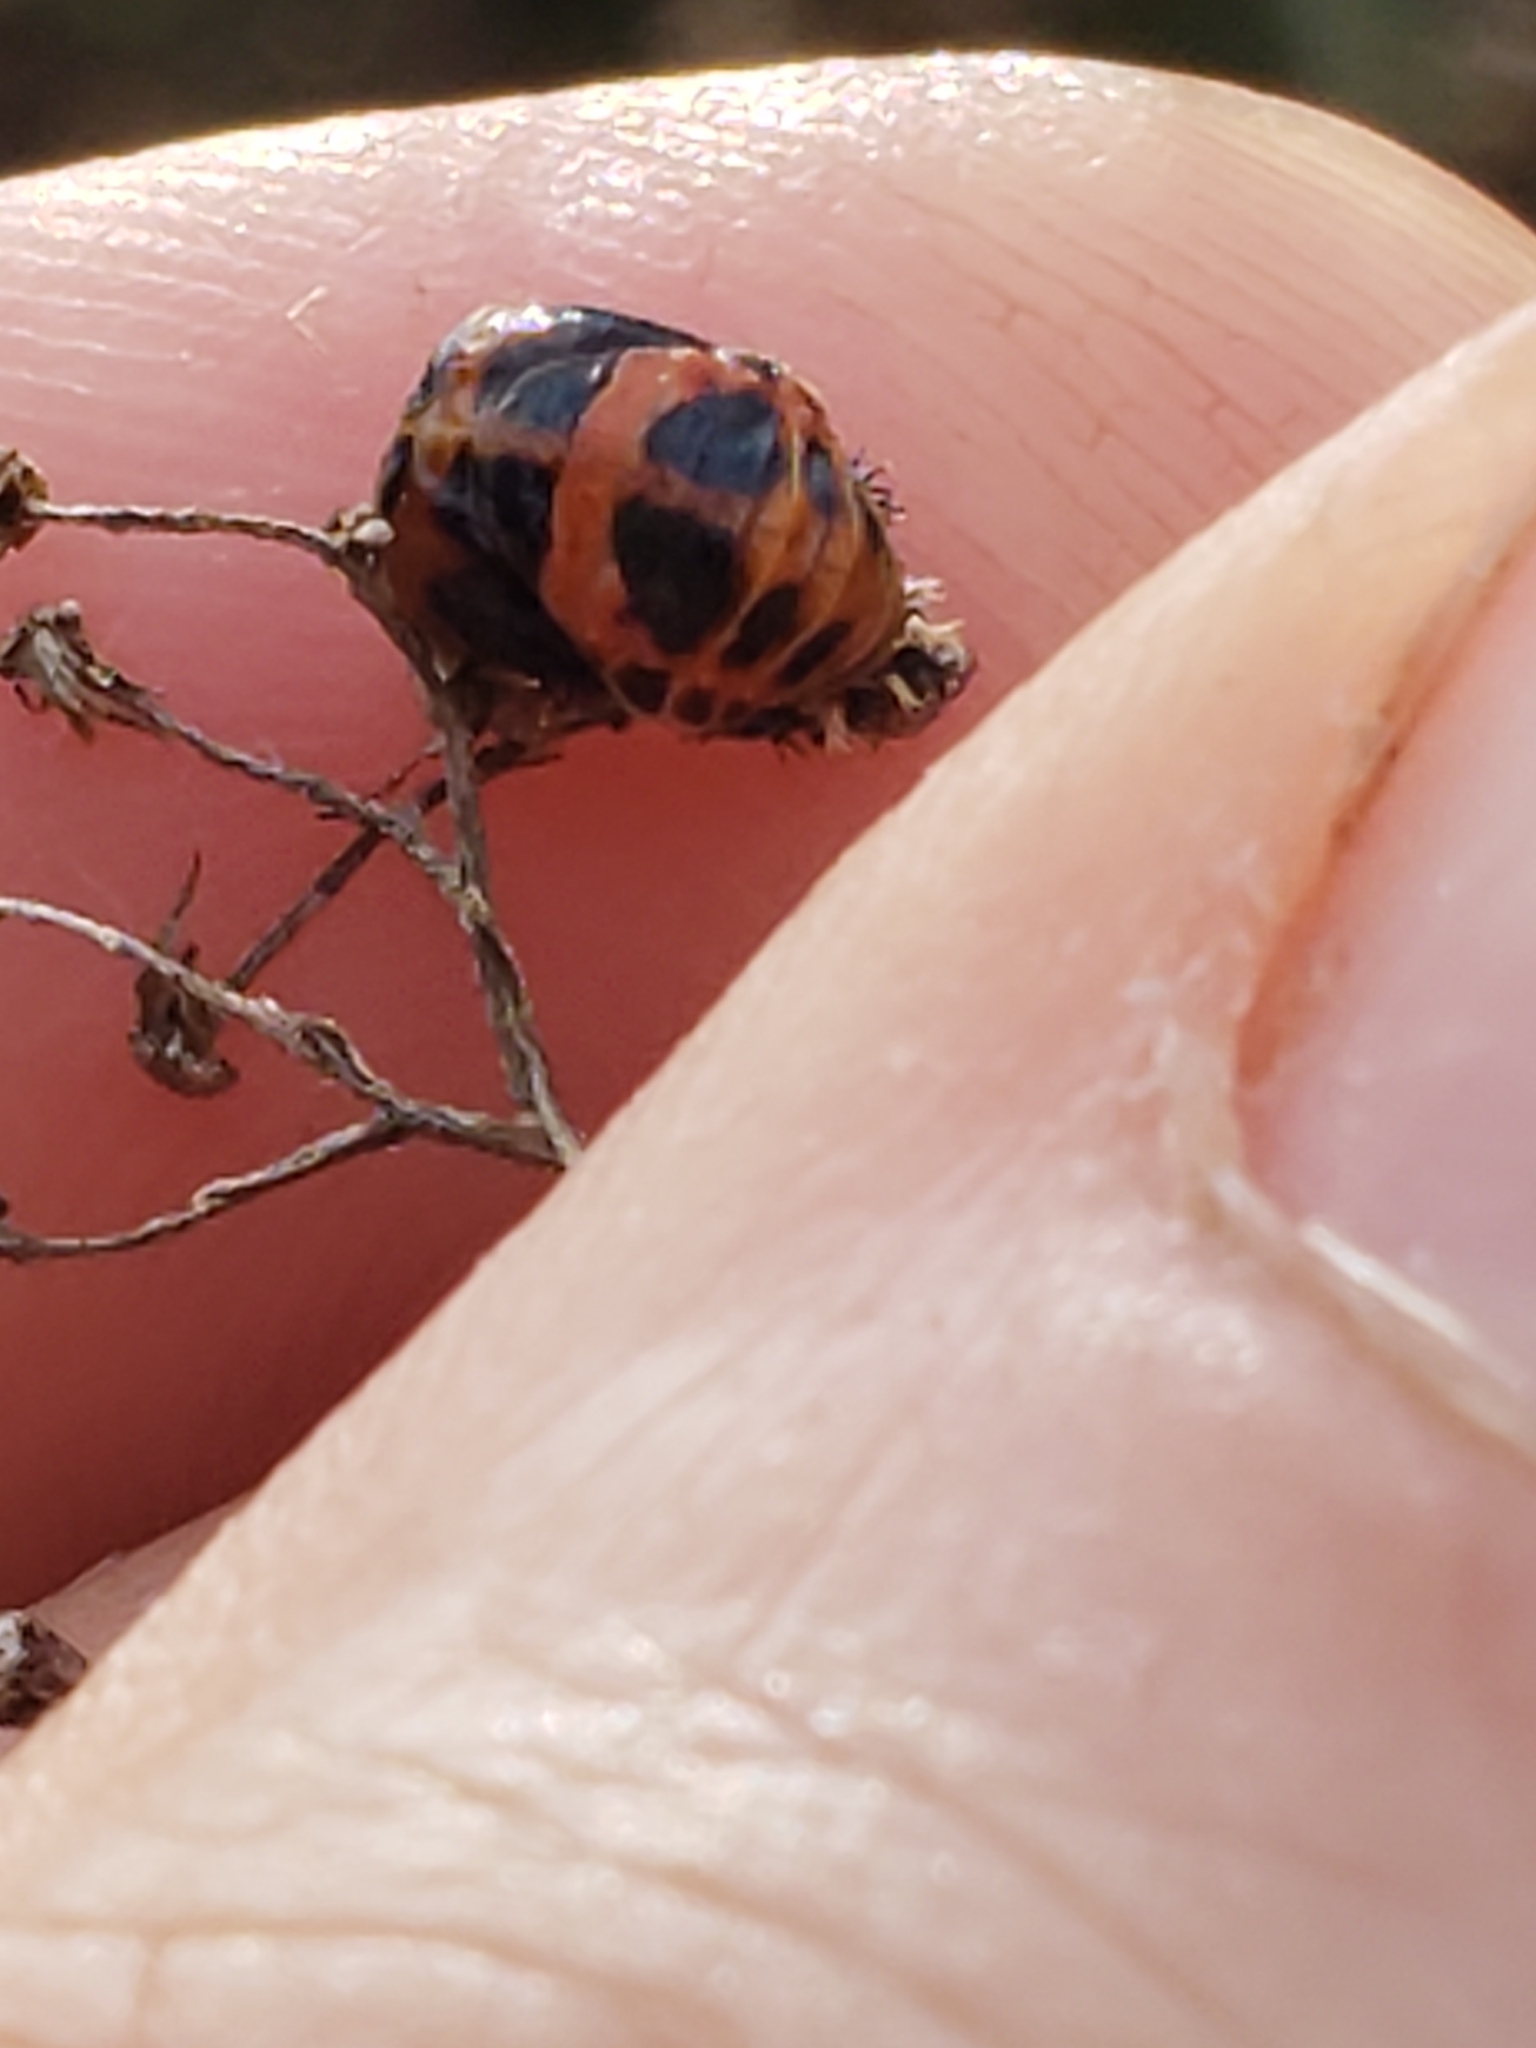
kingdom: Animalia
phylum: Arthropoda
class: Insecta
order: Coleoptera
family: Coccinellidae
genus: Harmonia
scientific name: Harmonia axyridis
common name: Harlequin ladybird
